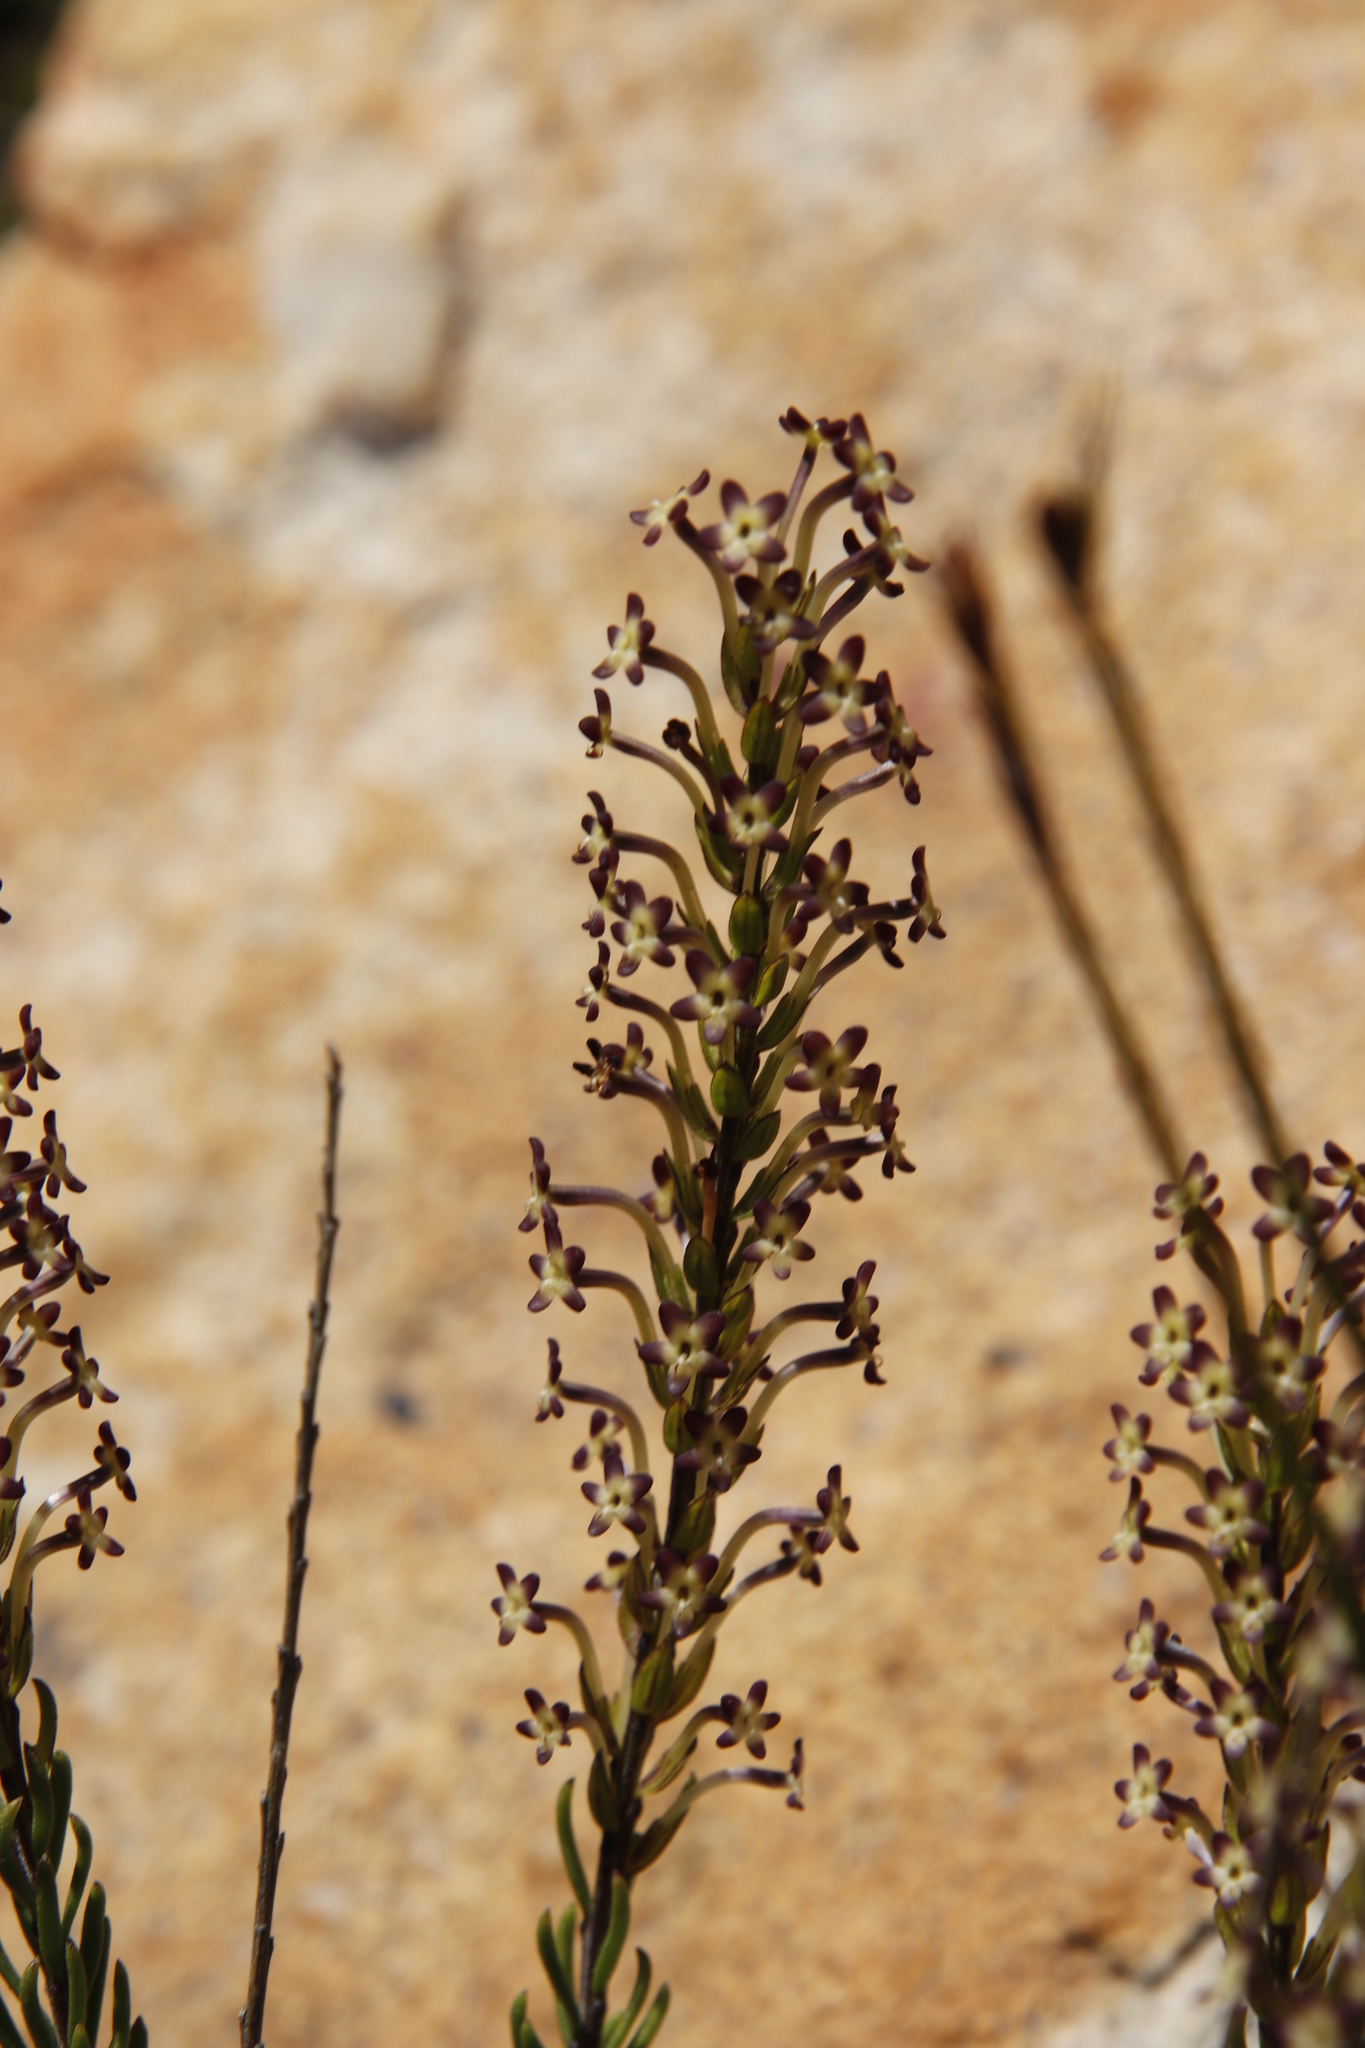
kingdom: Plantae
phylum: Tracheophyta
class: Magnoliopsida
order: Lamiales
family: Scrophulariaceae
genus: Microdon
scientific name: Microdon dubius
